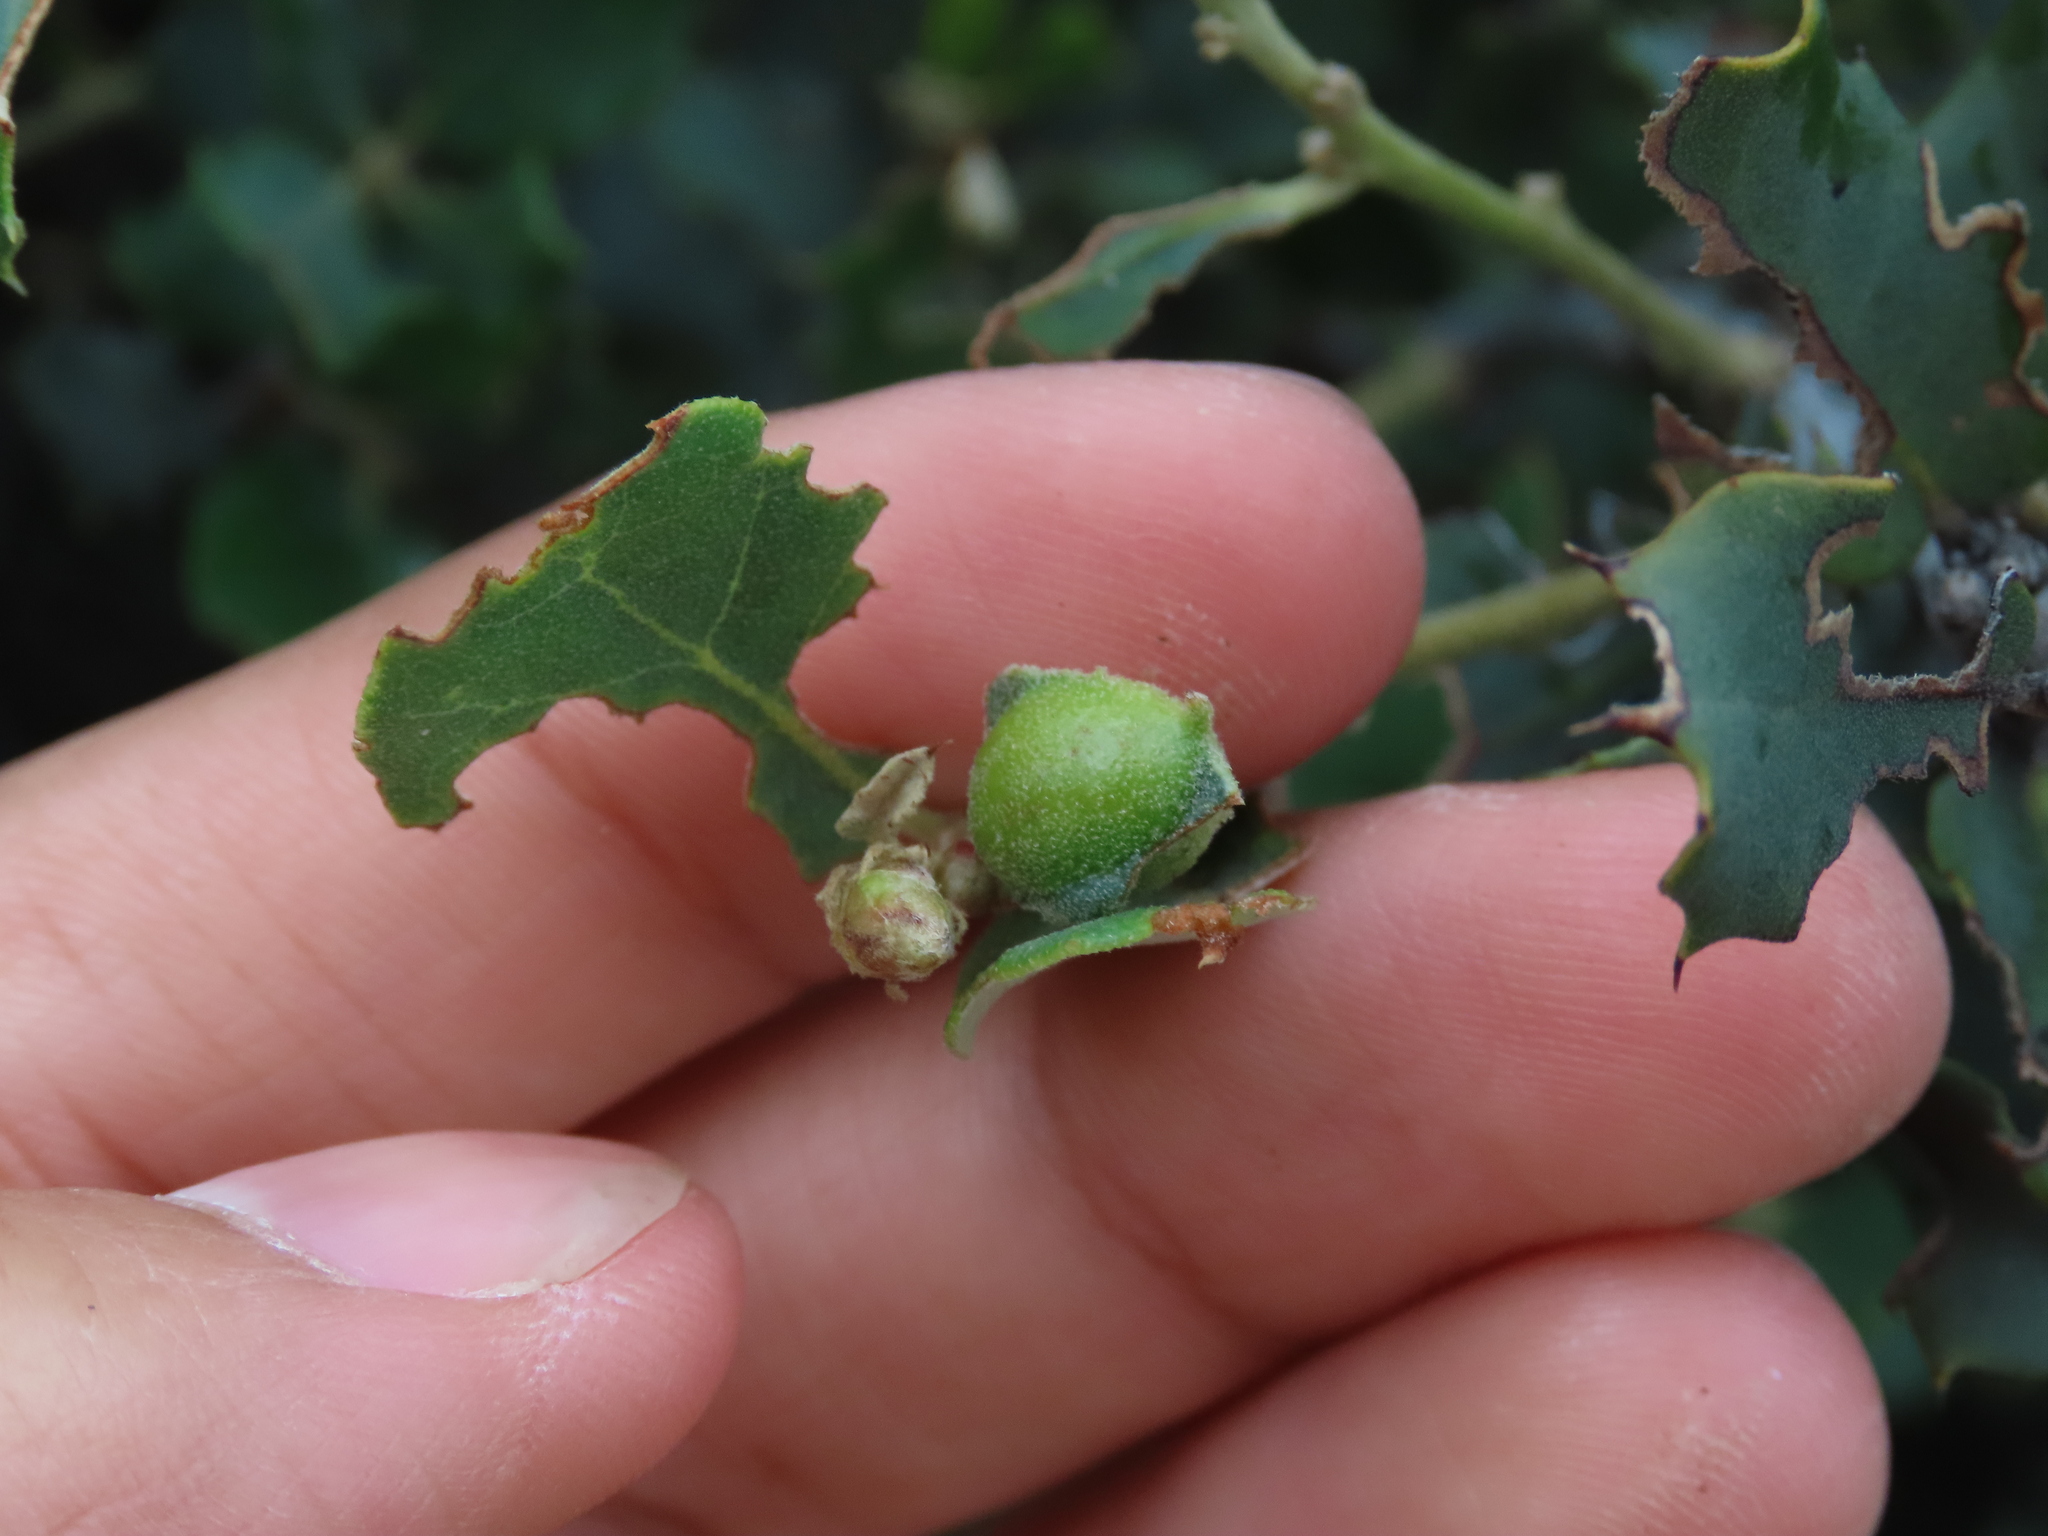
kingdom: Animalia
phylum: Arthropoda
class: Insecta
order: Hymenoptera
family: Cynipidae
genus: Plagiotrochus
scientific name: Plagiotrochus quercusilicis
